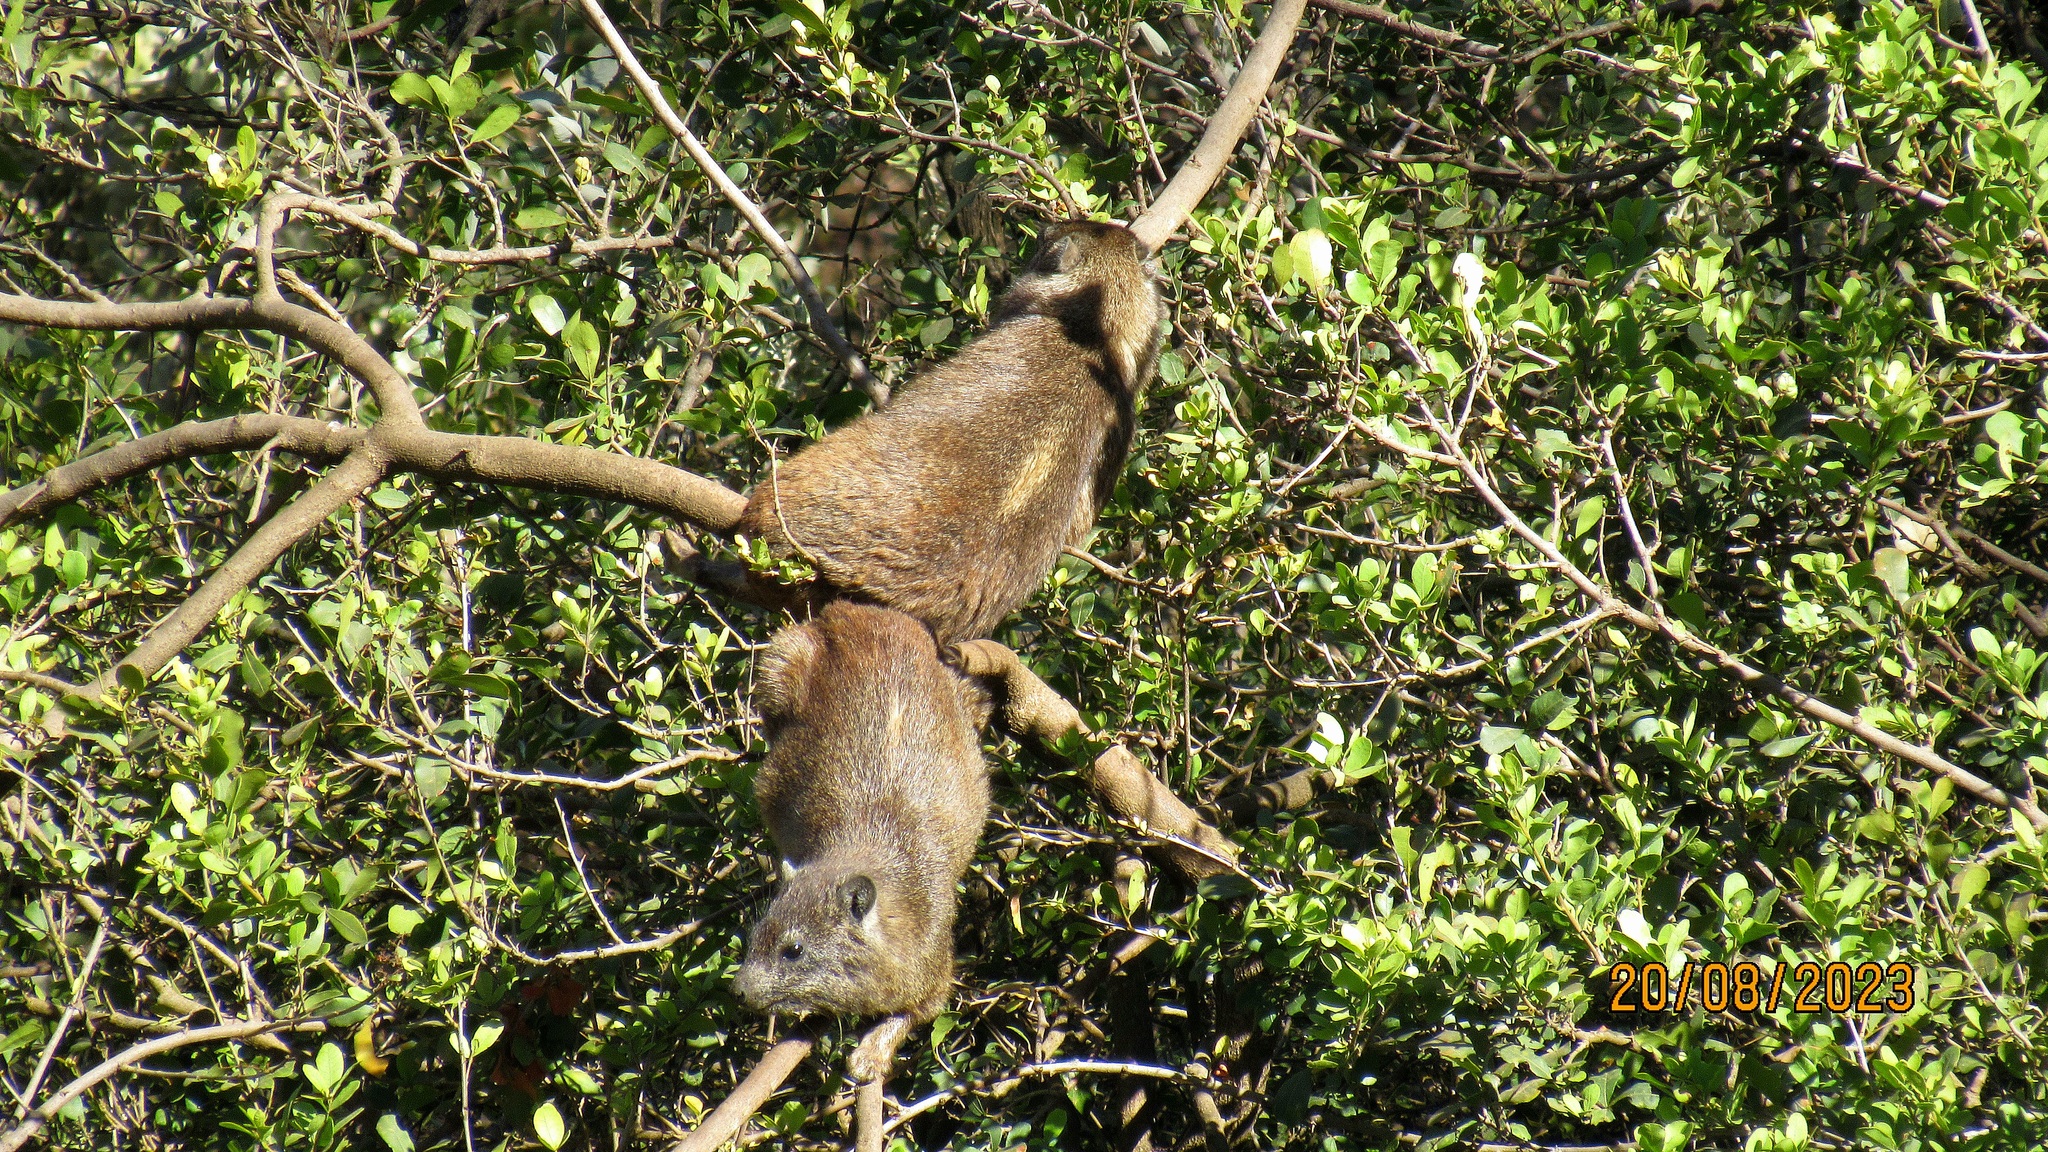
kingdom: Animalia
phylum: Chordata
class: Mammalia
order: Hyracoidea
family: Procaviidae
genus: Procavia
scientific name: Procavia capensis
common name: Rock hyrax
